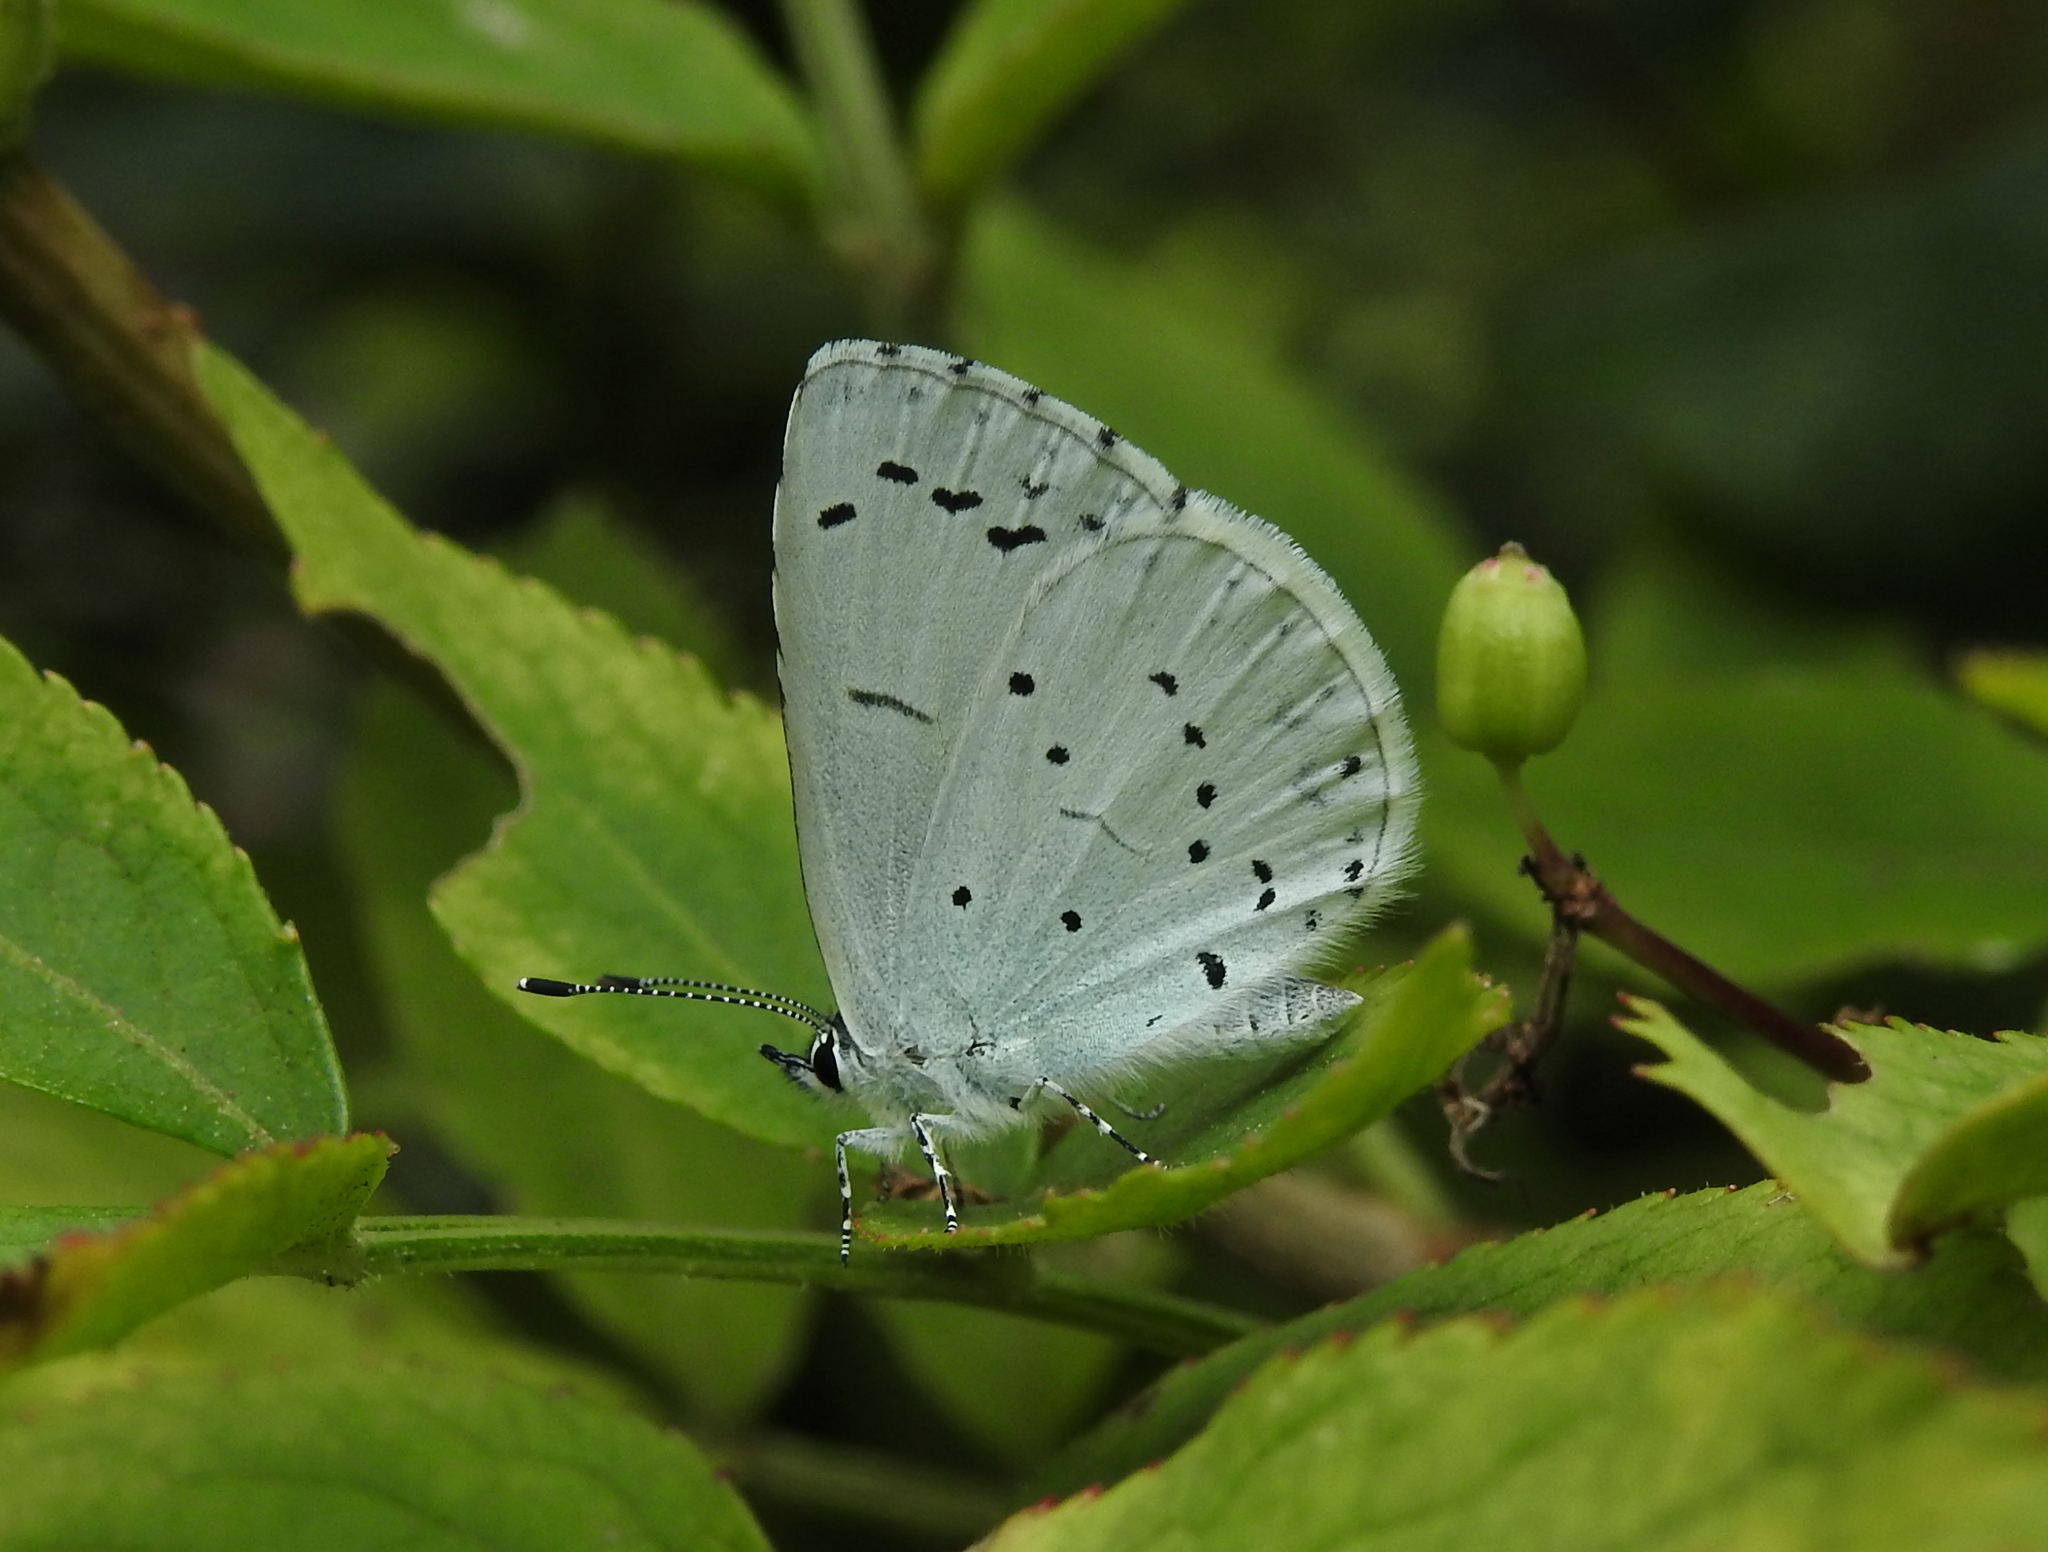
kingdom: Animalia
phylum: Arthropoda
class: Insecta
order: Lepidoptera
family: Lycaenidae
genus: Celastrina
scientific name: Celastrina argiolus
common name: Holly blue
